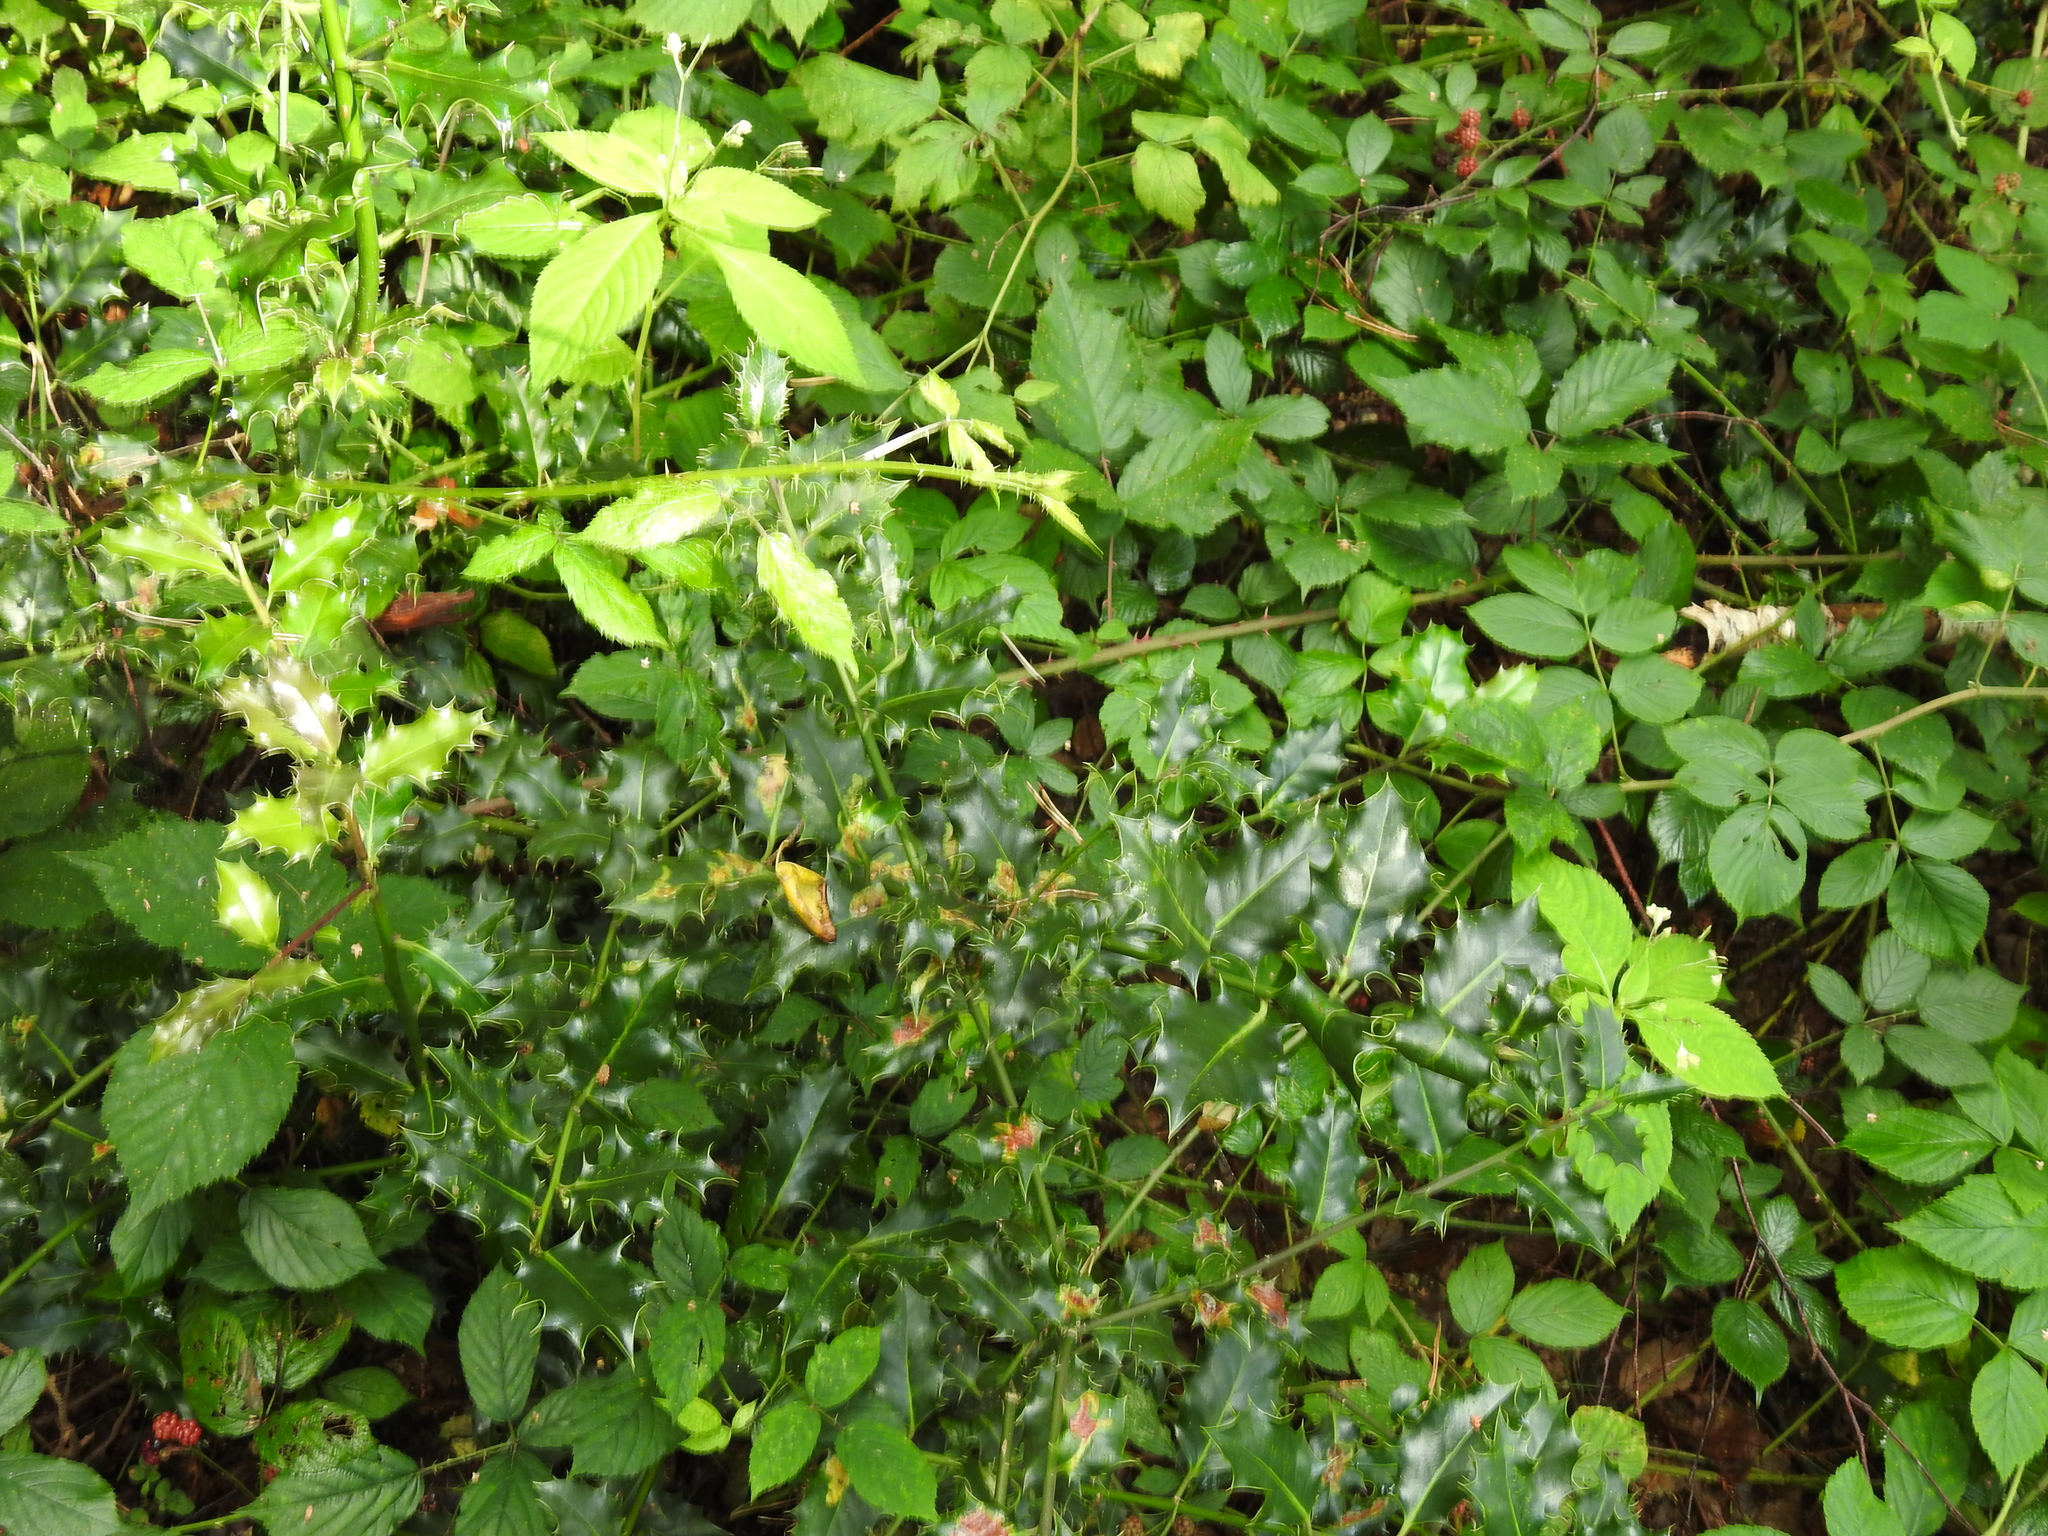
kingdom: Plantae
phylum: Tracheophyta
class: Magnoliopsida
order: Aquifoliales
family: Aquifoliaceae
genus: Ilex
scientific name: Ilex aquifolium
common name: English holly
